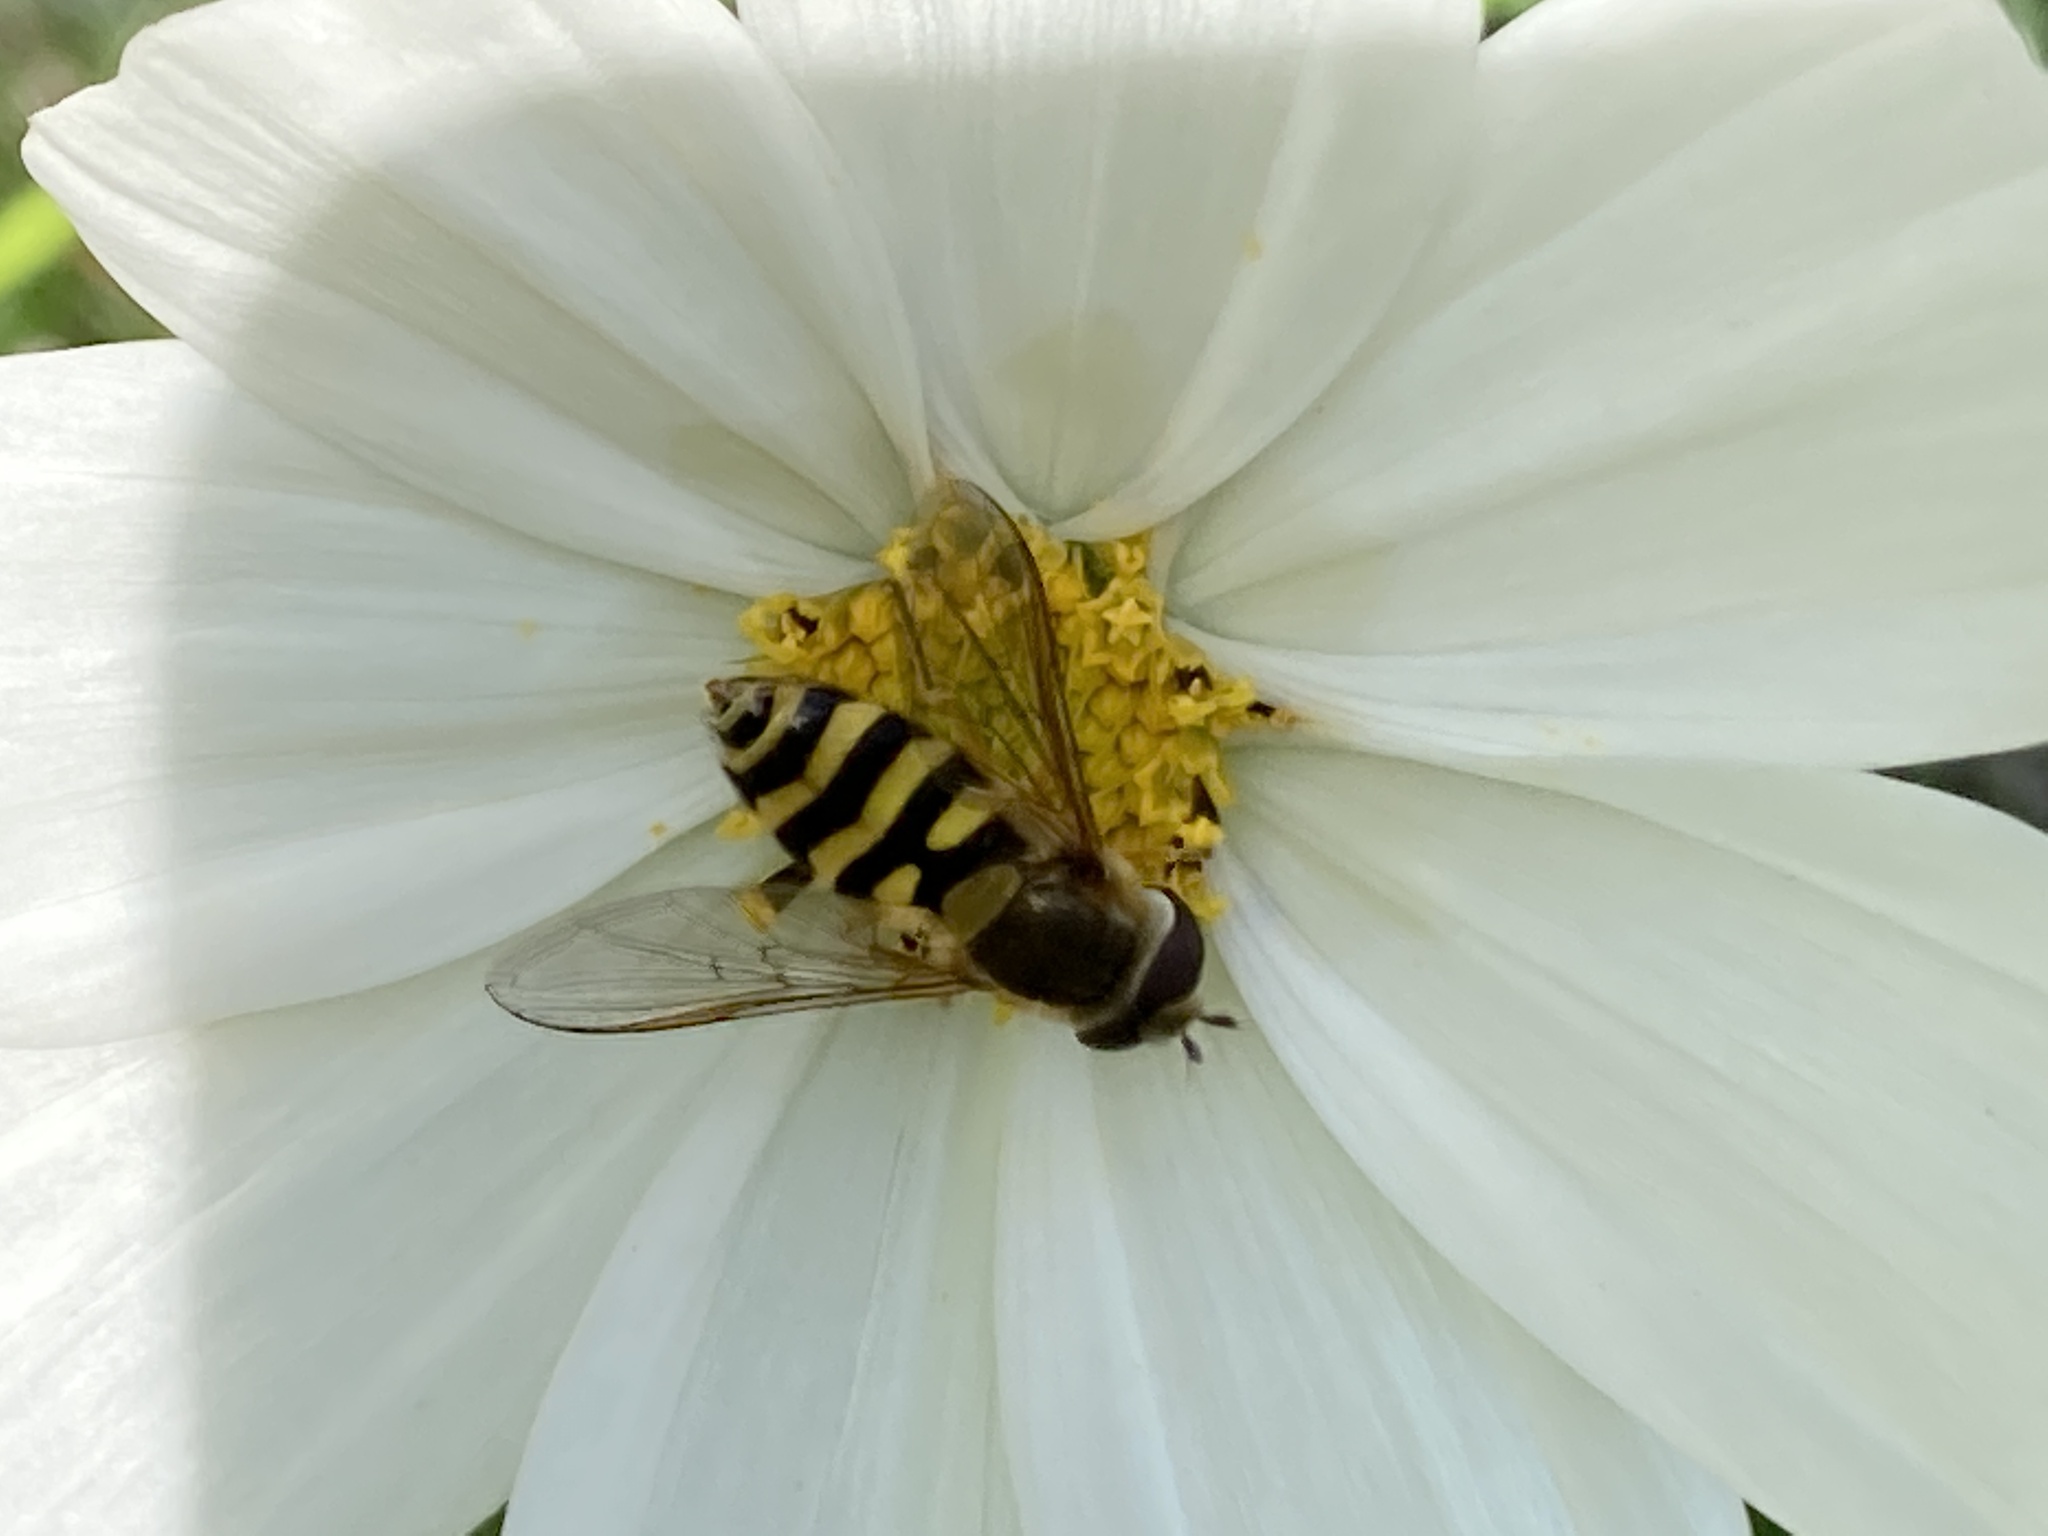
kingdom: Animalia
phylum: Arthropoda
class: Insecta
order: Diptera
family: Syrphidae
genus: Syrphus
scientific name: Syrphus ribesii
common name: Common flower fly
